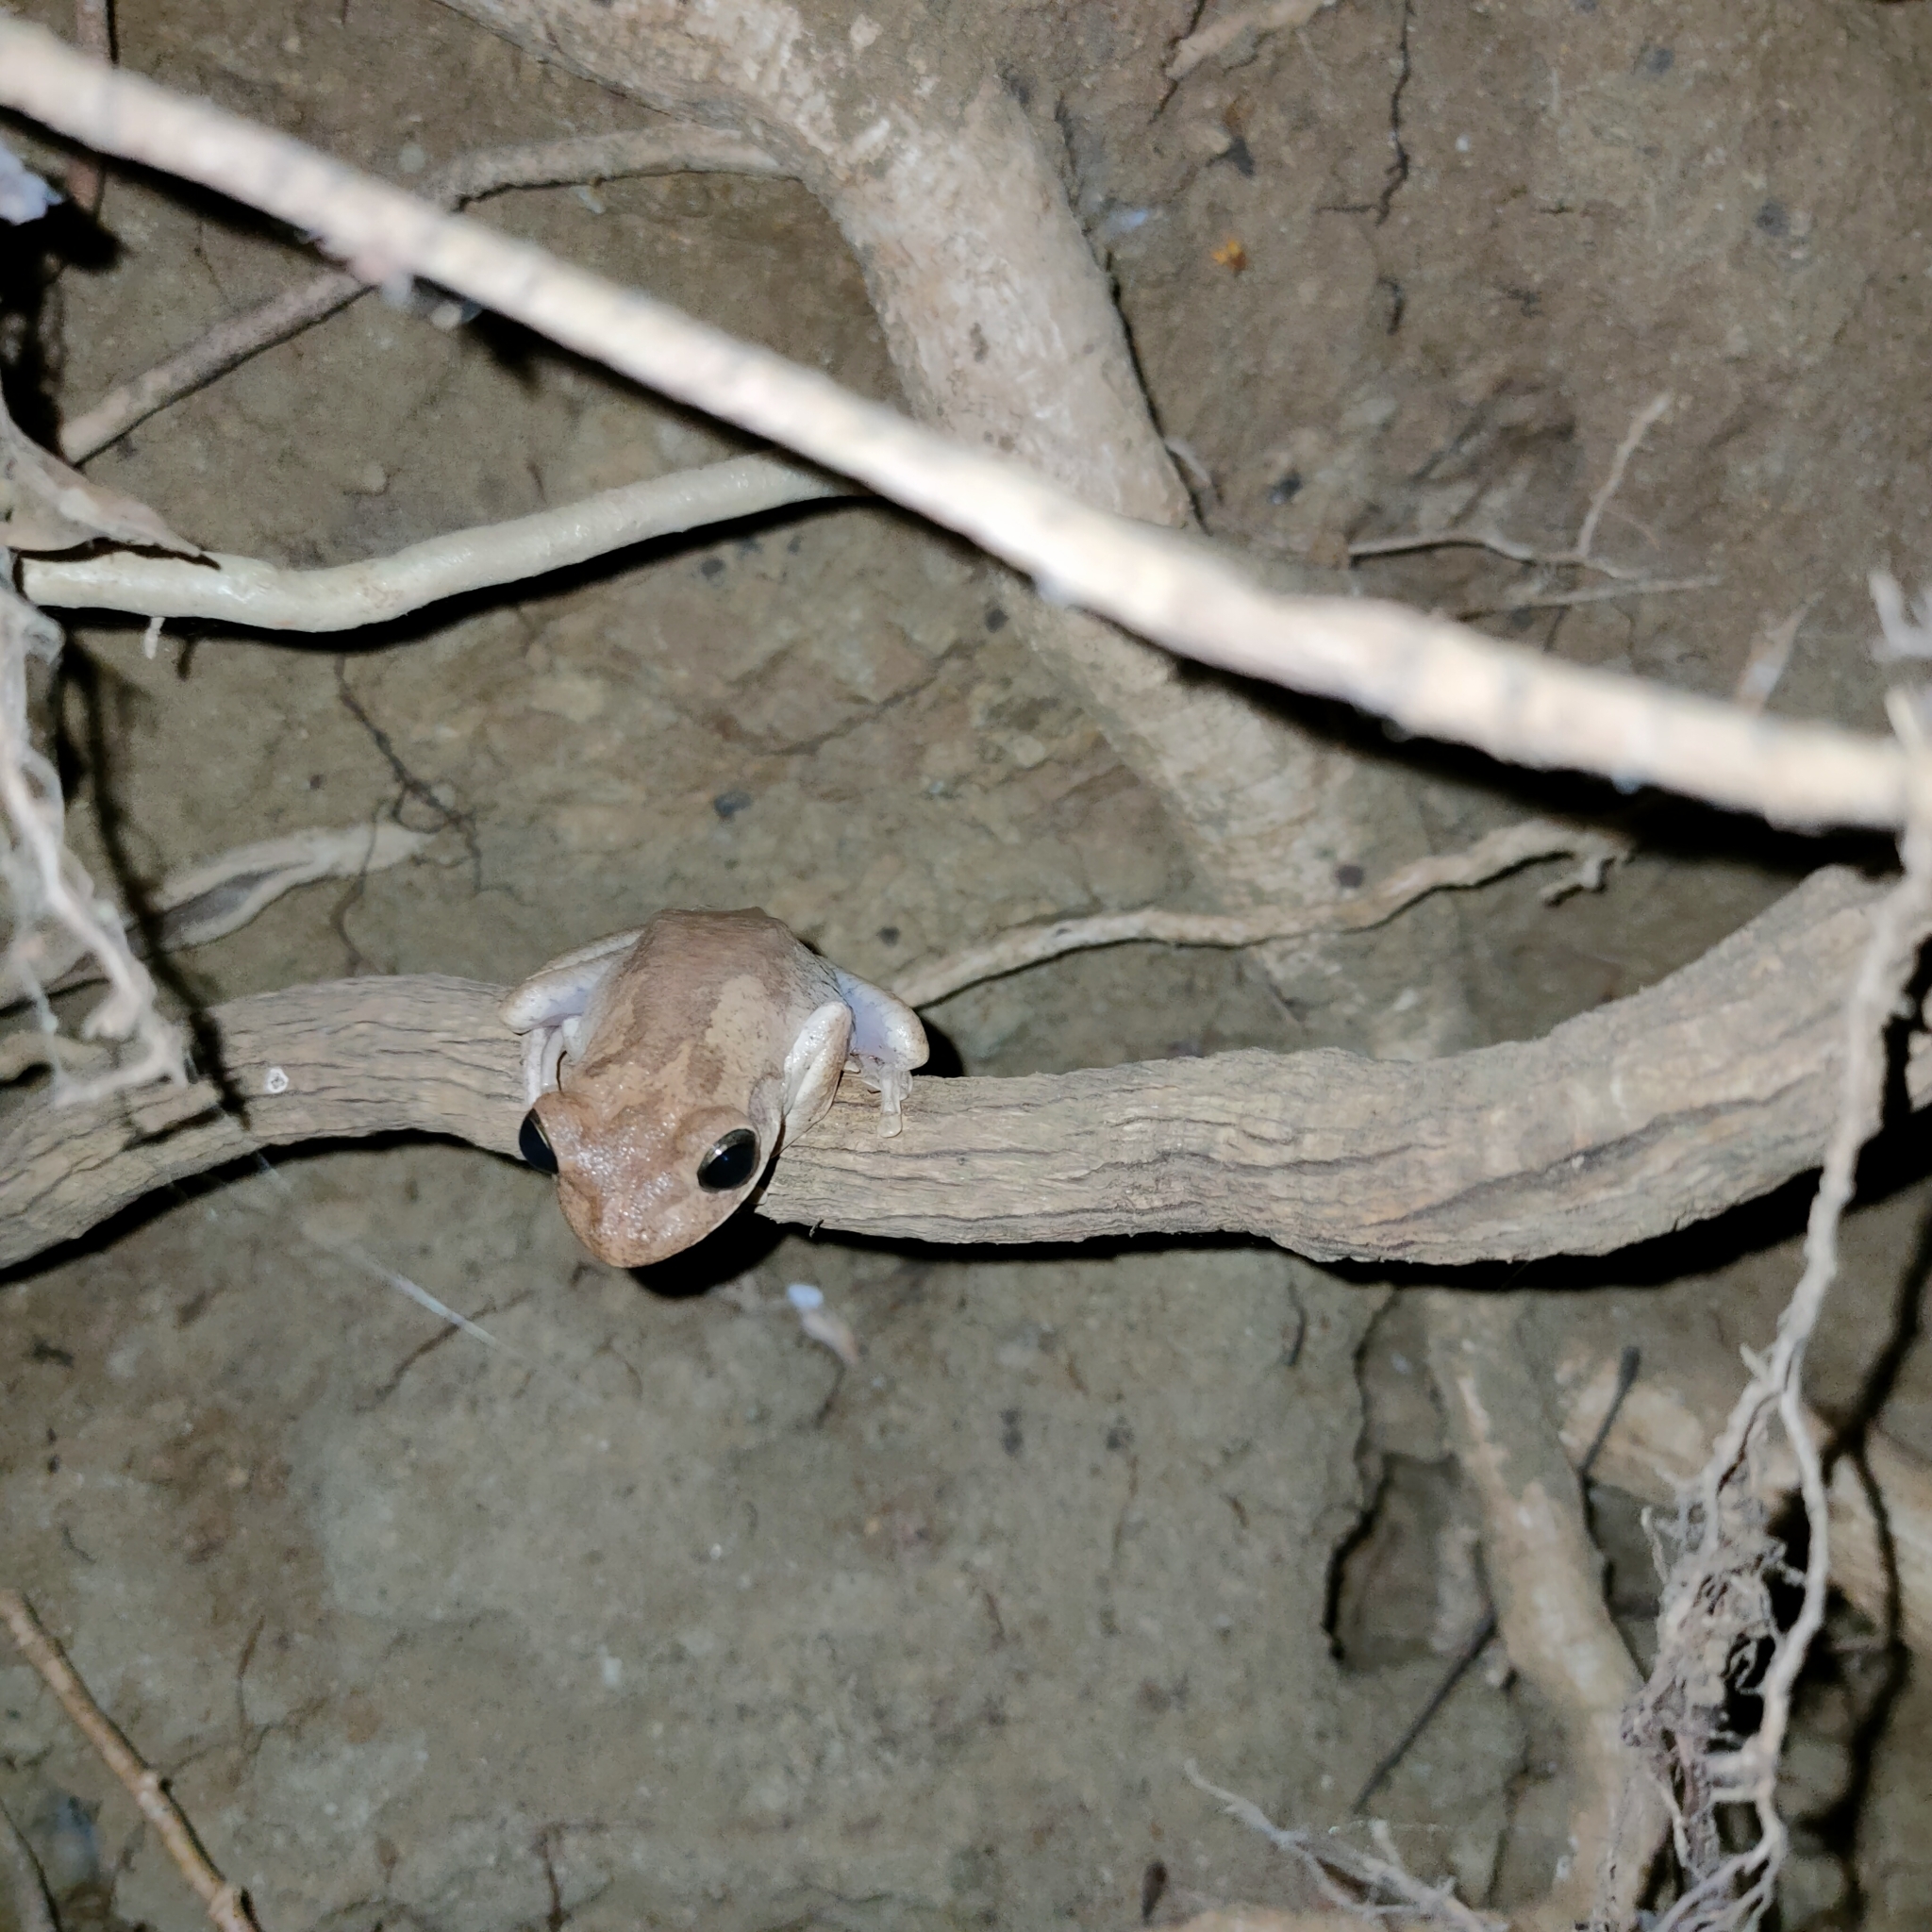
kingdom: Animalia
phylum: Chordata
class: Amphibia
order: Anura
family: Hylidae
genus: Smilisca
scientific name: Smilisca sila
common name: Panama cross-banded treefrog
